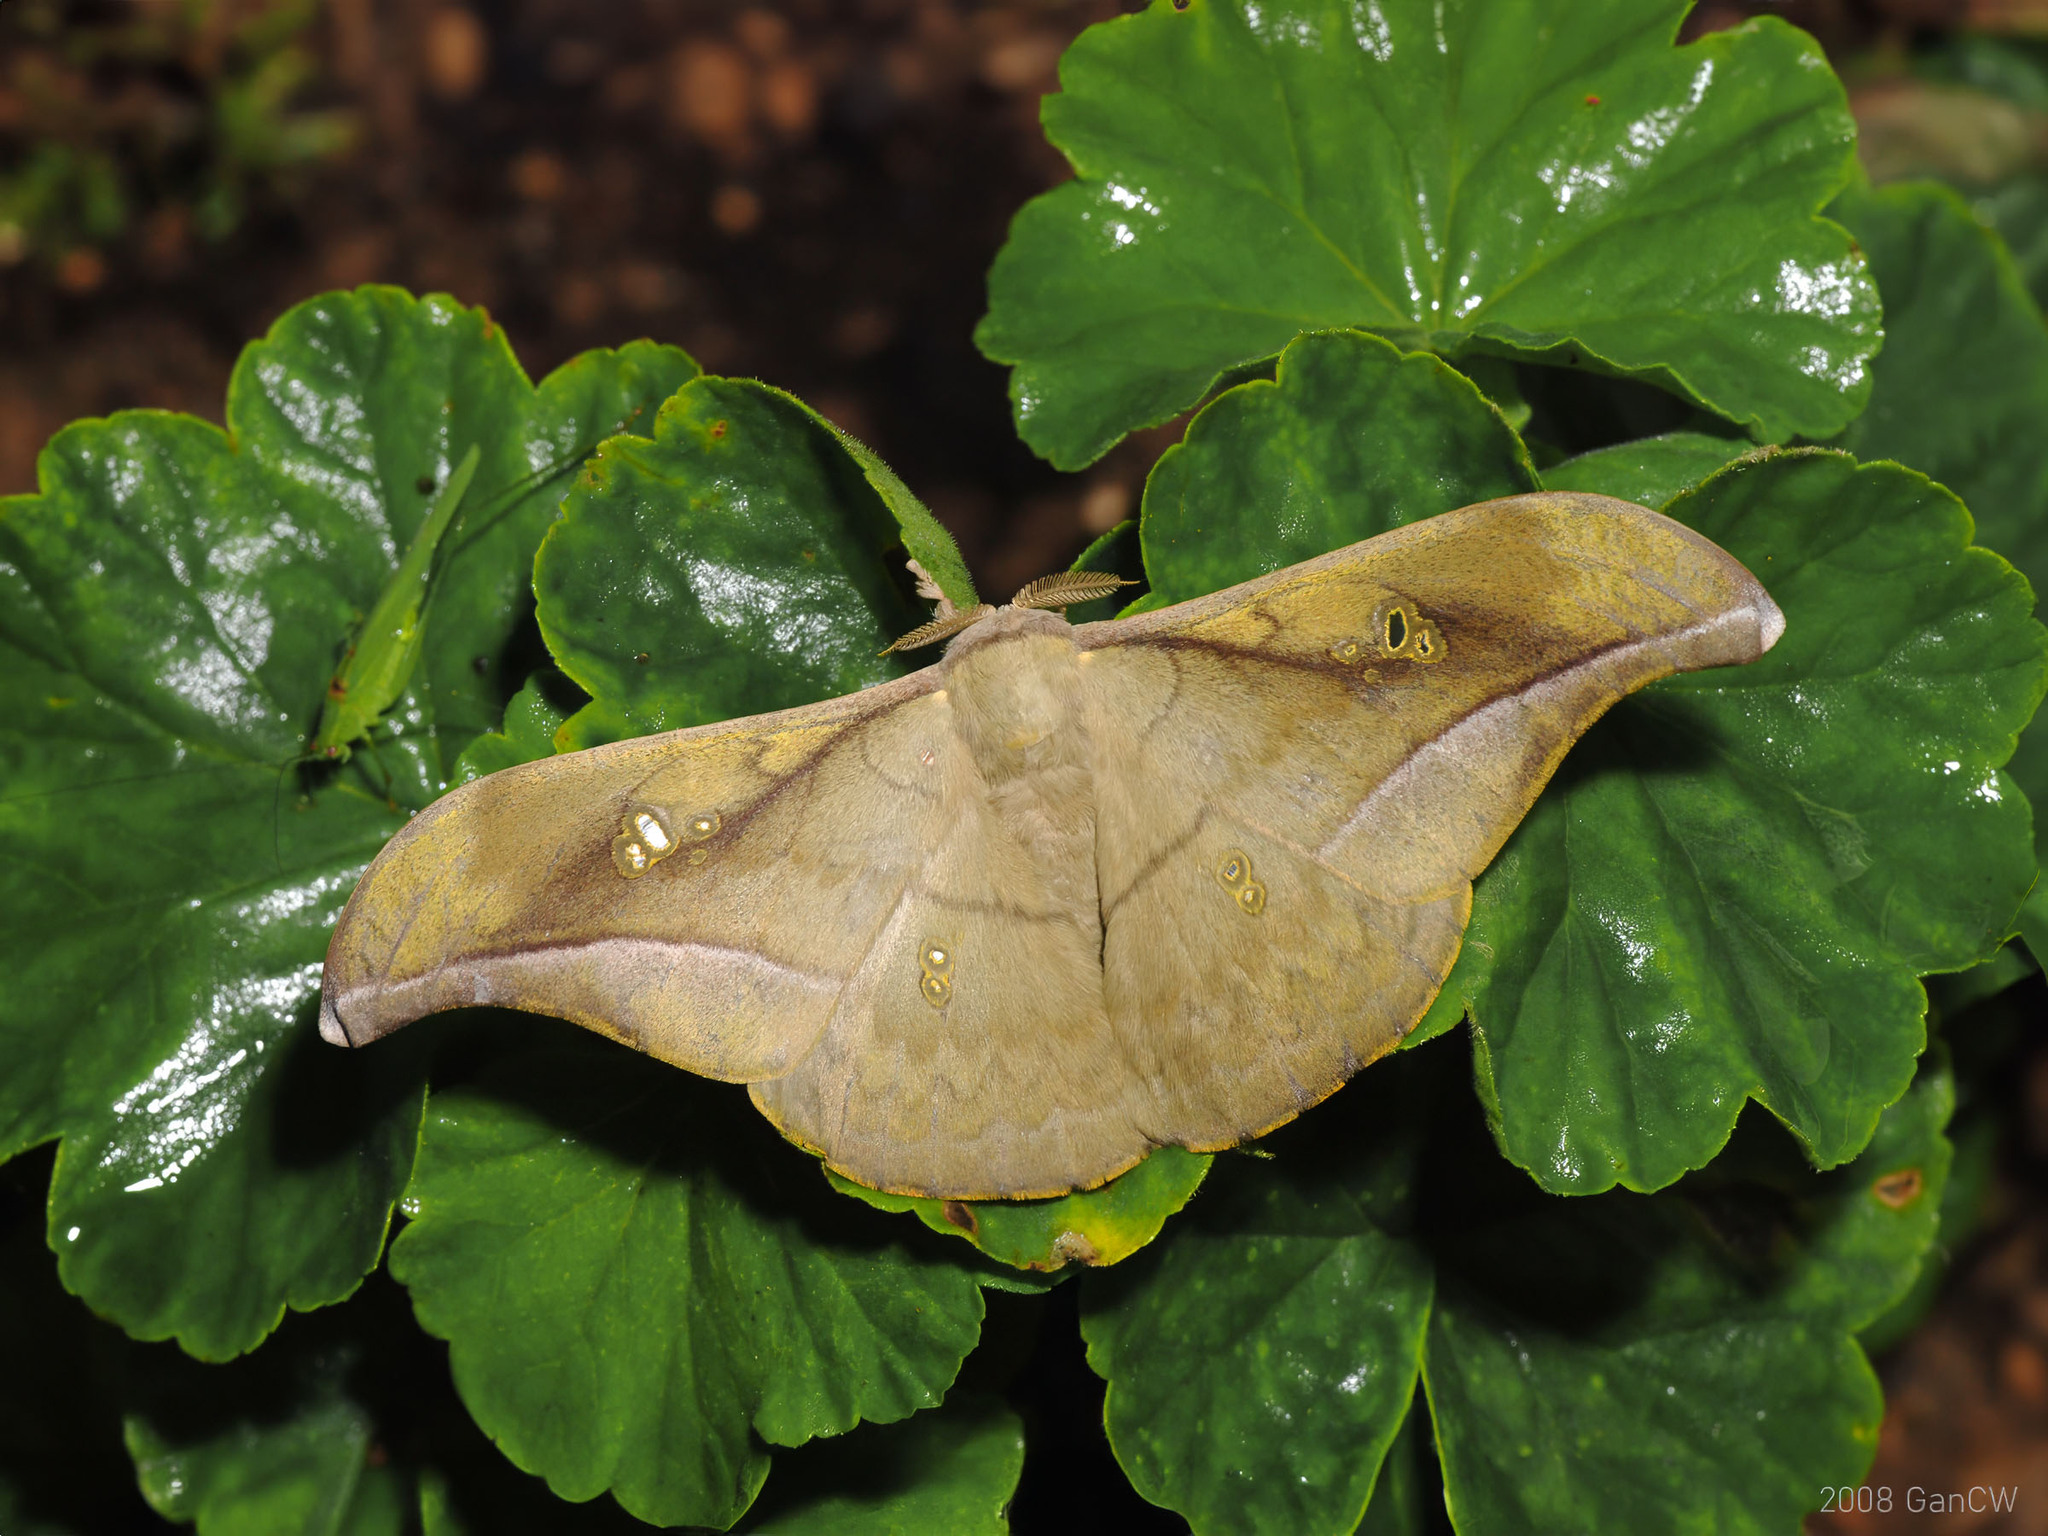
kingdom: Animalia
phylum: Arthropoda
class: Insecta
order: Lepidoptera
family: Saturniidae
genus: Antheraea
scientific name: Antheraea rosieri
